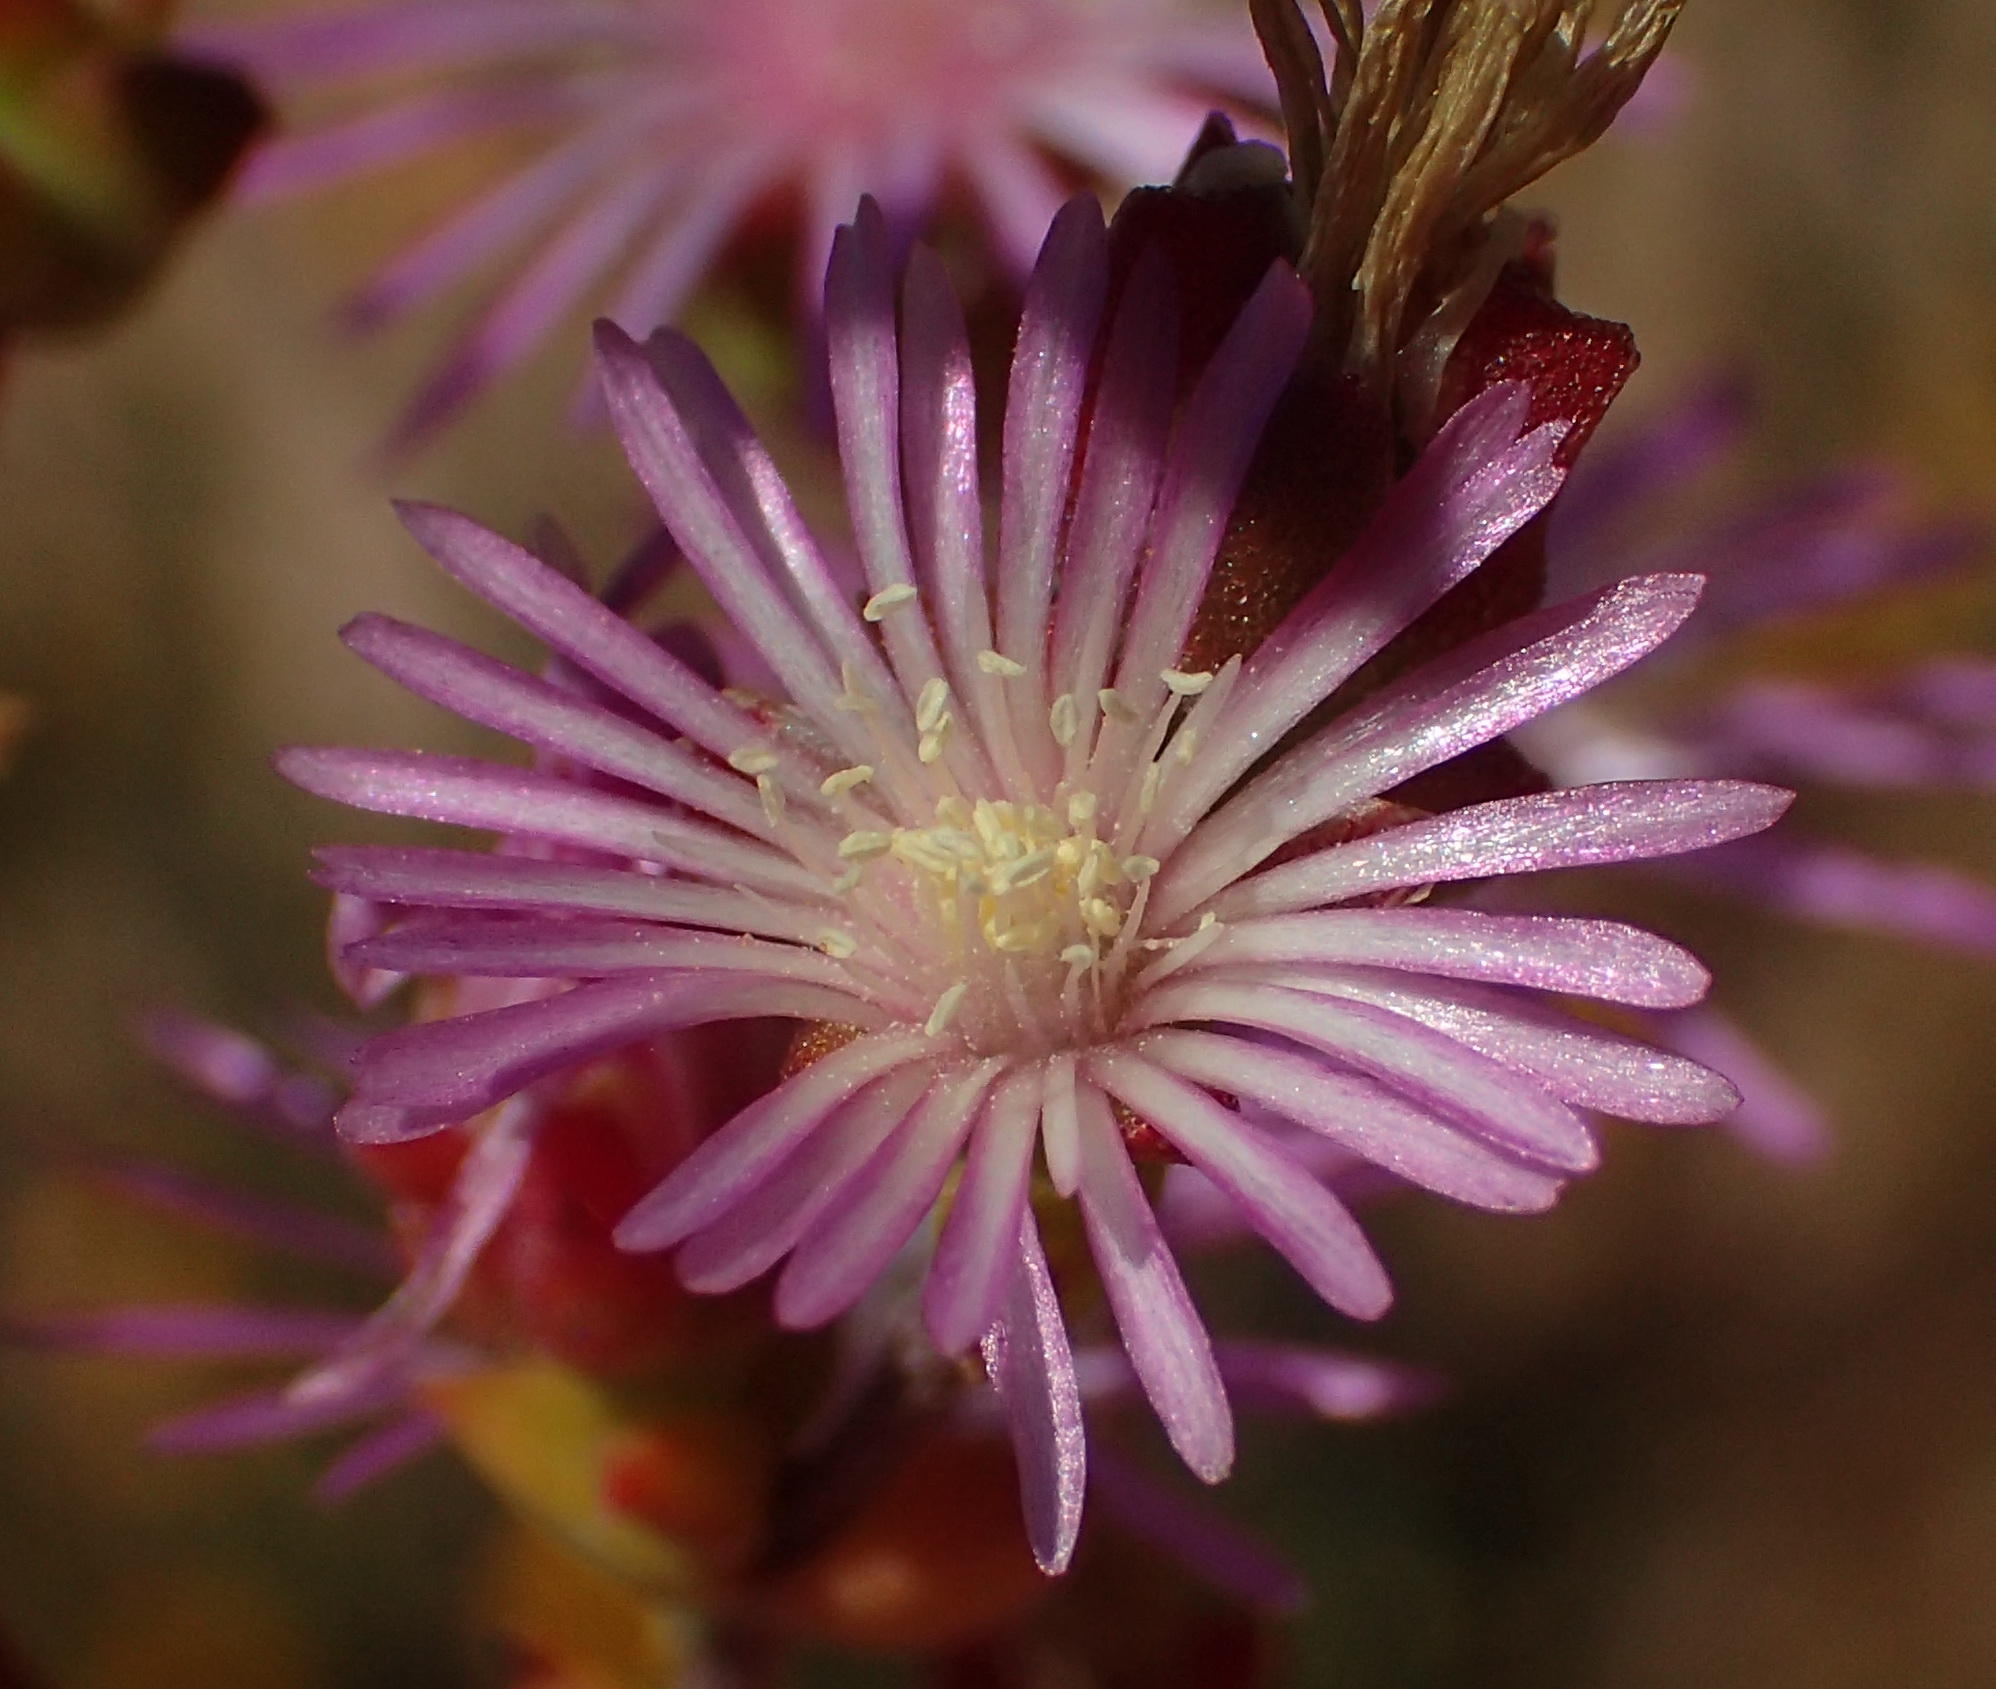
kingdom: Plantae
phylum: Tracheophyta
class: Magnoliopsida
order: Caryophyllales
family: Aizoaceae
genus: Drosanthemum
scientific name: Drosanthemum parvifolium
